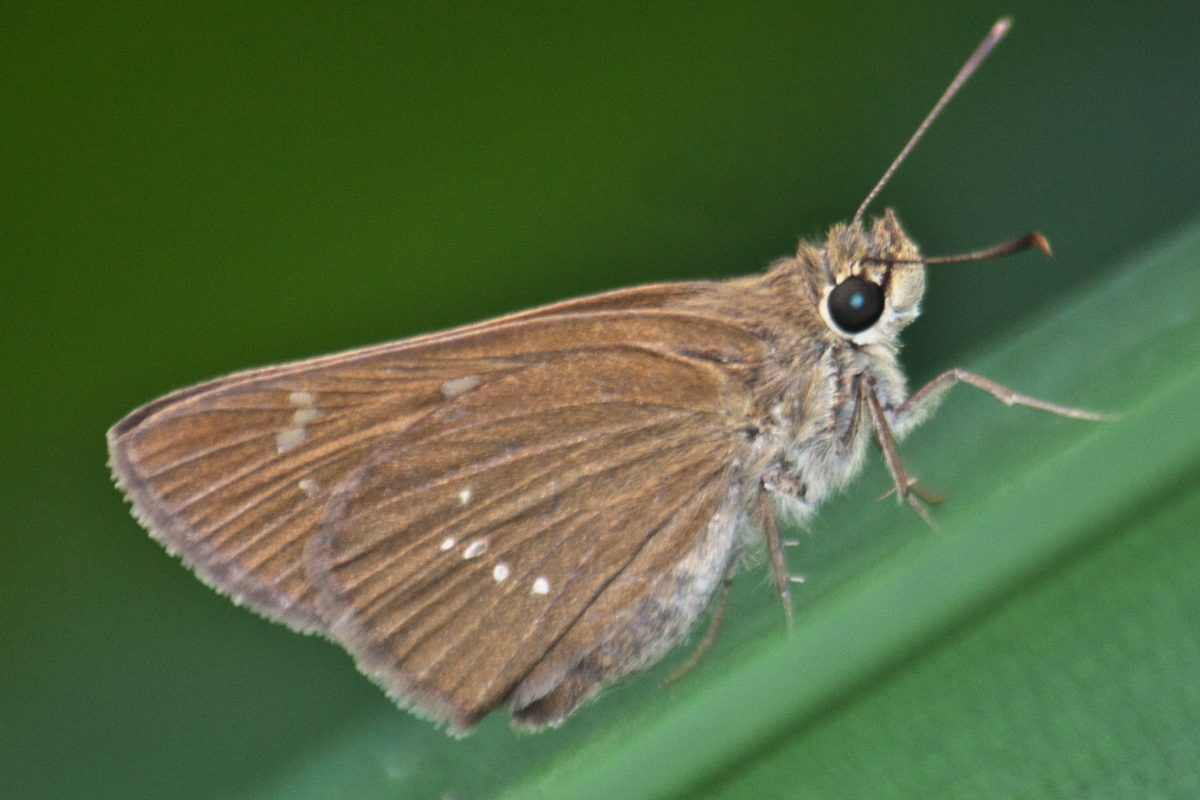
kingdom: Animalia
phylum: Arthropoda
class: Insecta
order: Lepidoptera
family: Hesperiidae
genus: Polytremis
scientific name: Polytremis lubricans
